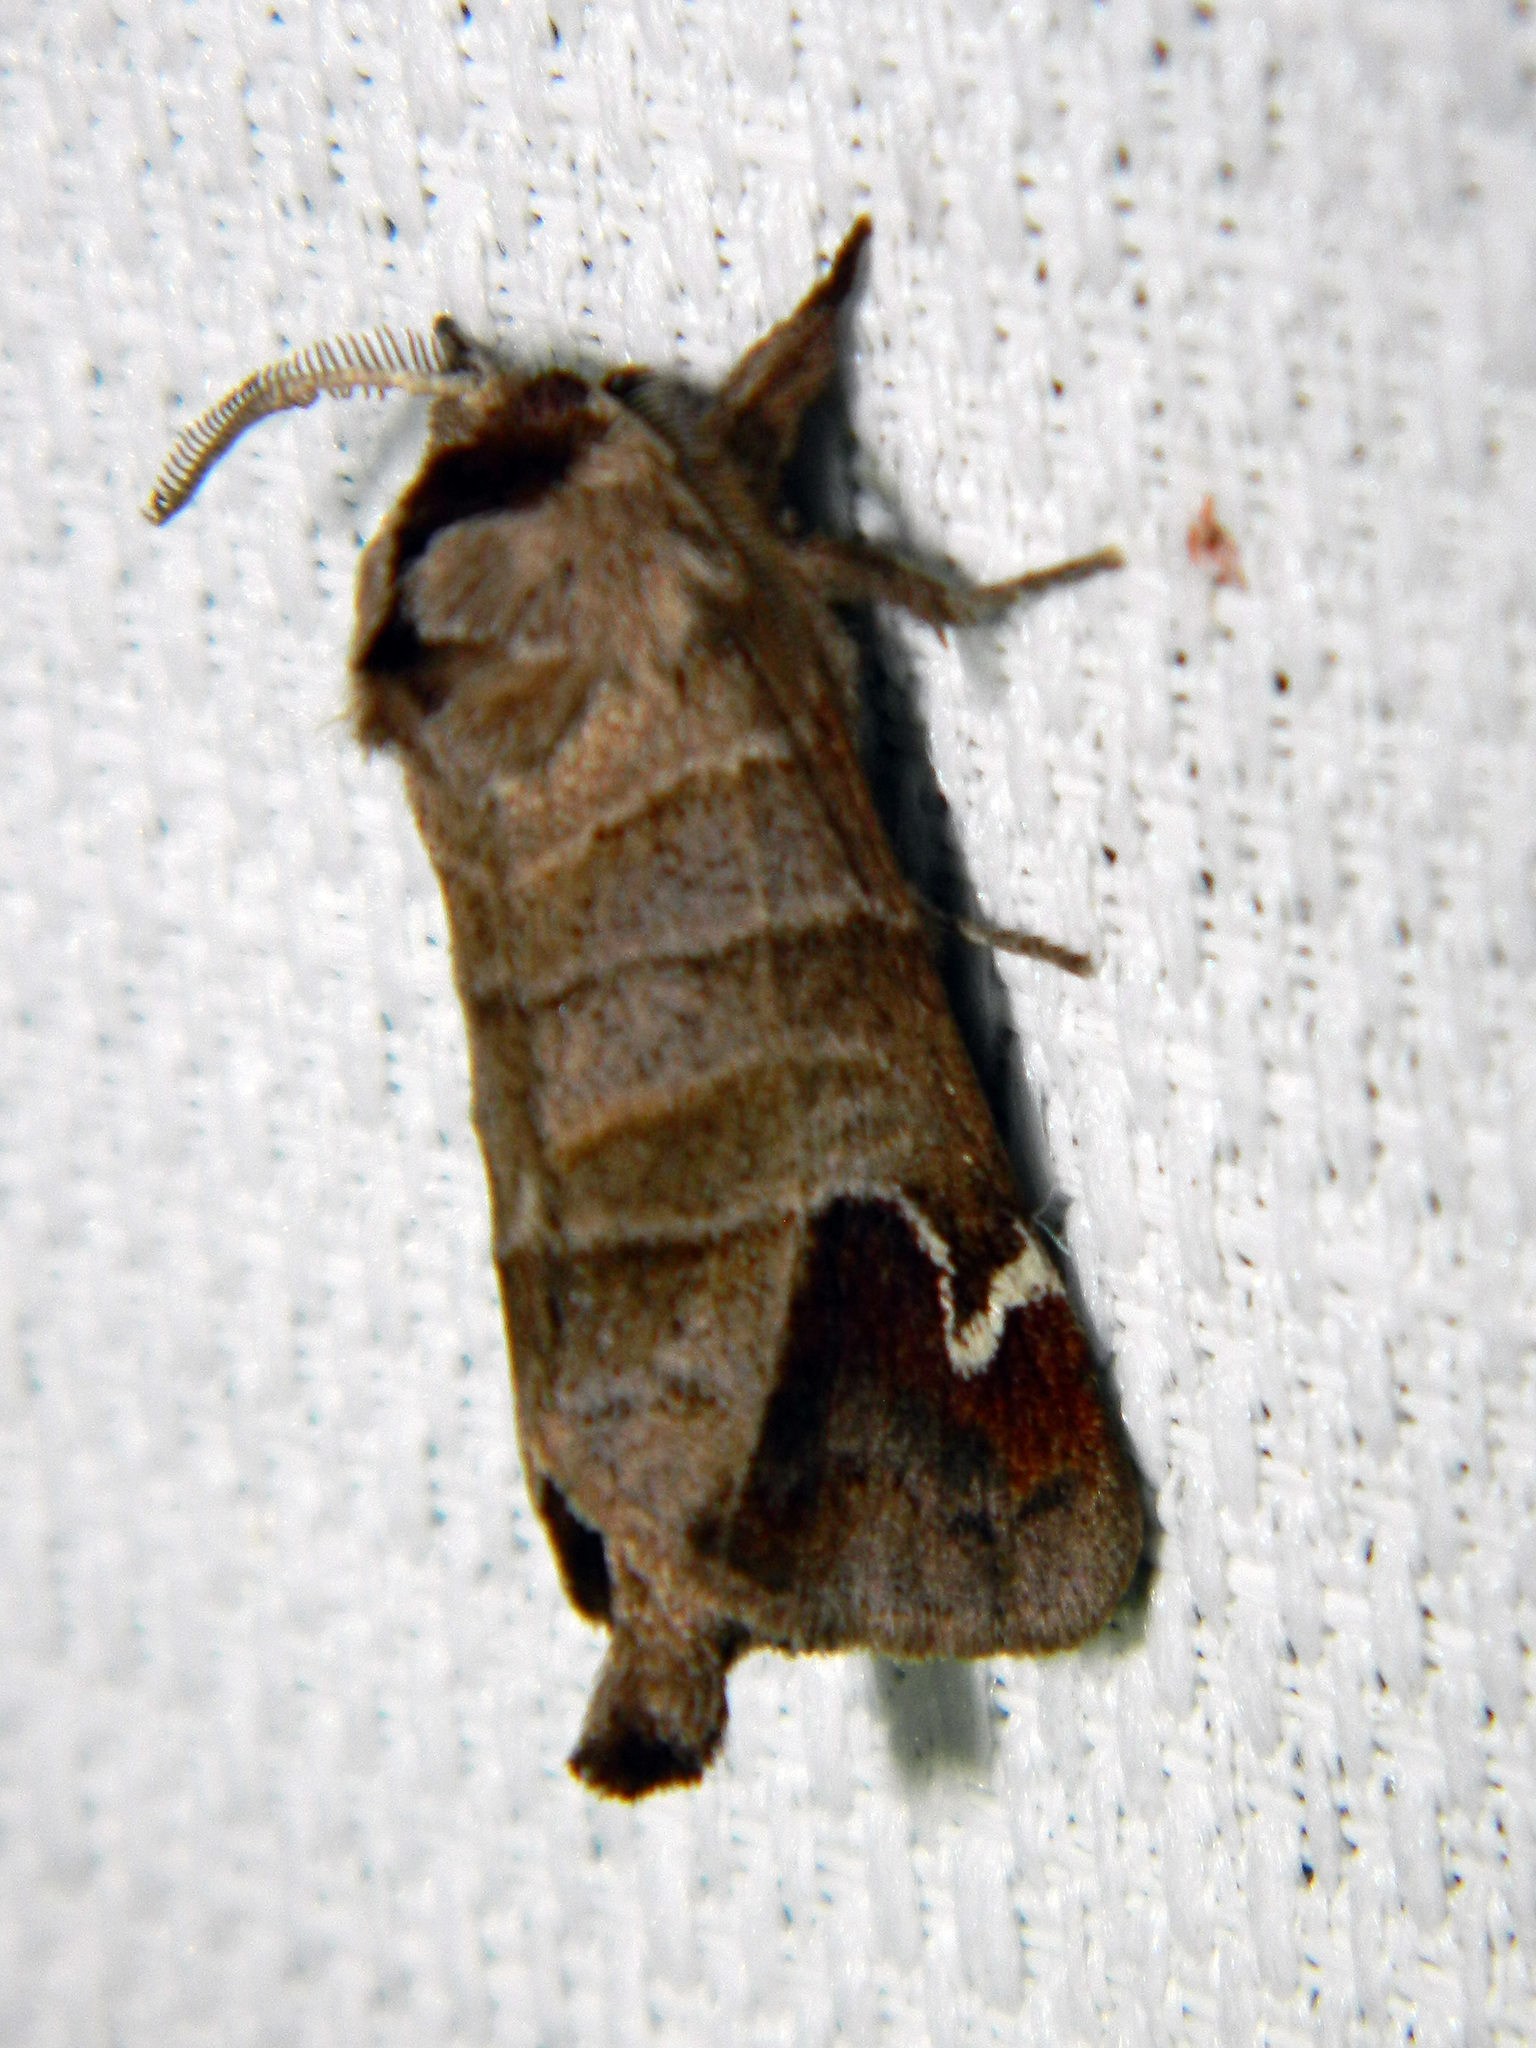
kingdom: Animalia
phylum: Arthropoda
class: Insecta
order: Lepidoptera
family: Notodontidae
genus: Clostera
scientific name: Clostera albosigma
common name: Sigmoid prominent
